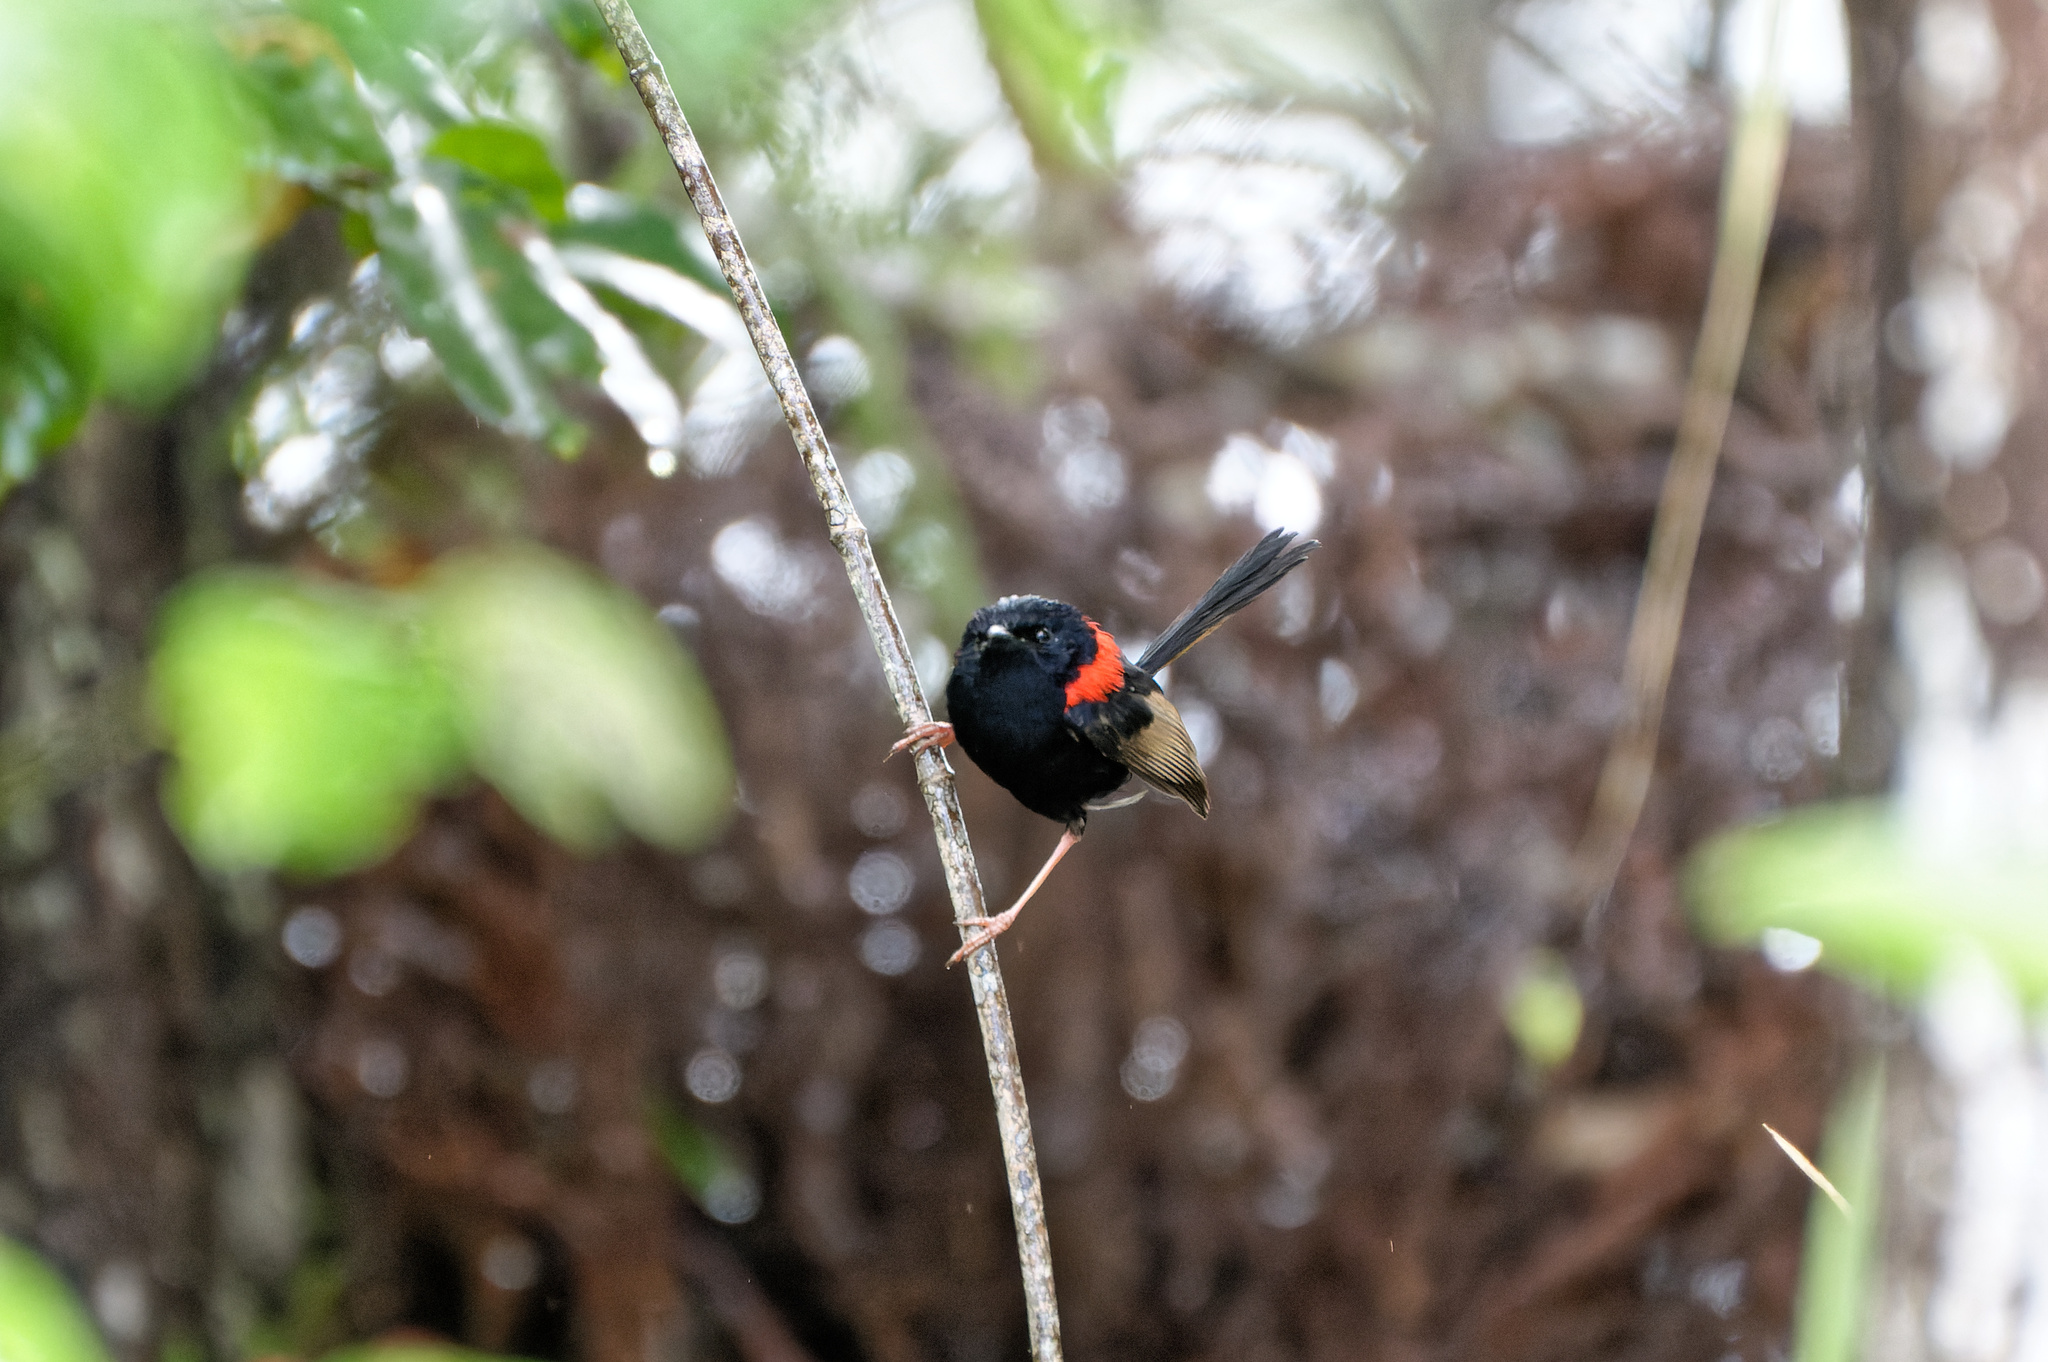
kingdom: Animalia
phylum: Chordata
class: Aves
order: Passeriformes
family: Maluridae
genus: Malurus
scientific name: Malurus melanocephalus
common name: Red-backed fairywren
